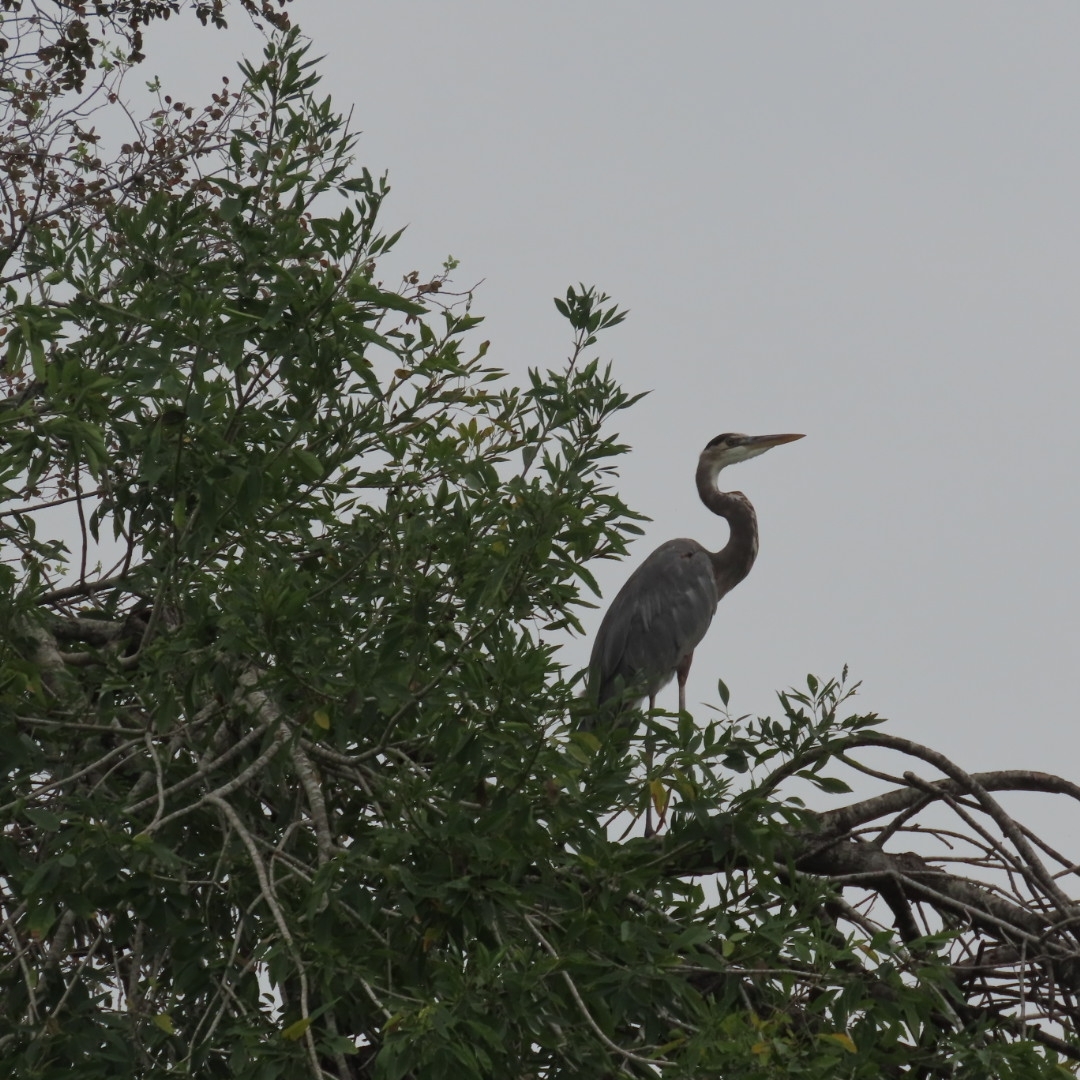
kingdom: Animalia
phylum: Chordata
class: Aves
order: Pelecaniformes
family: Ardeidae
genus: Ardea
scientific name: Ardea herodias
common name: Great blue heron
